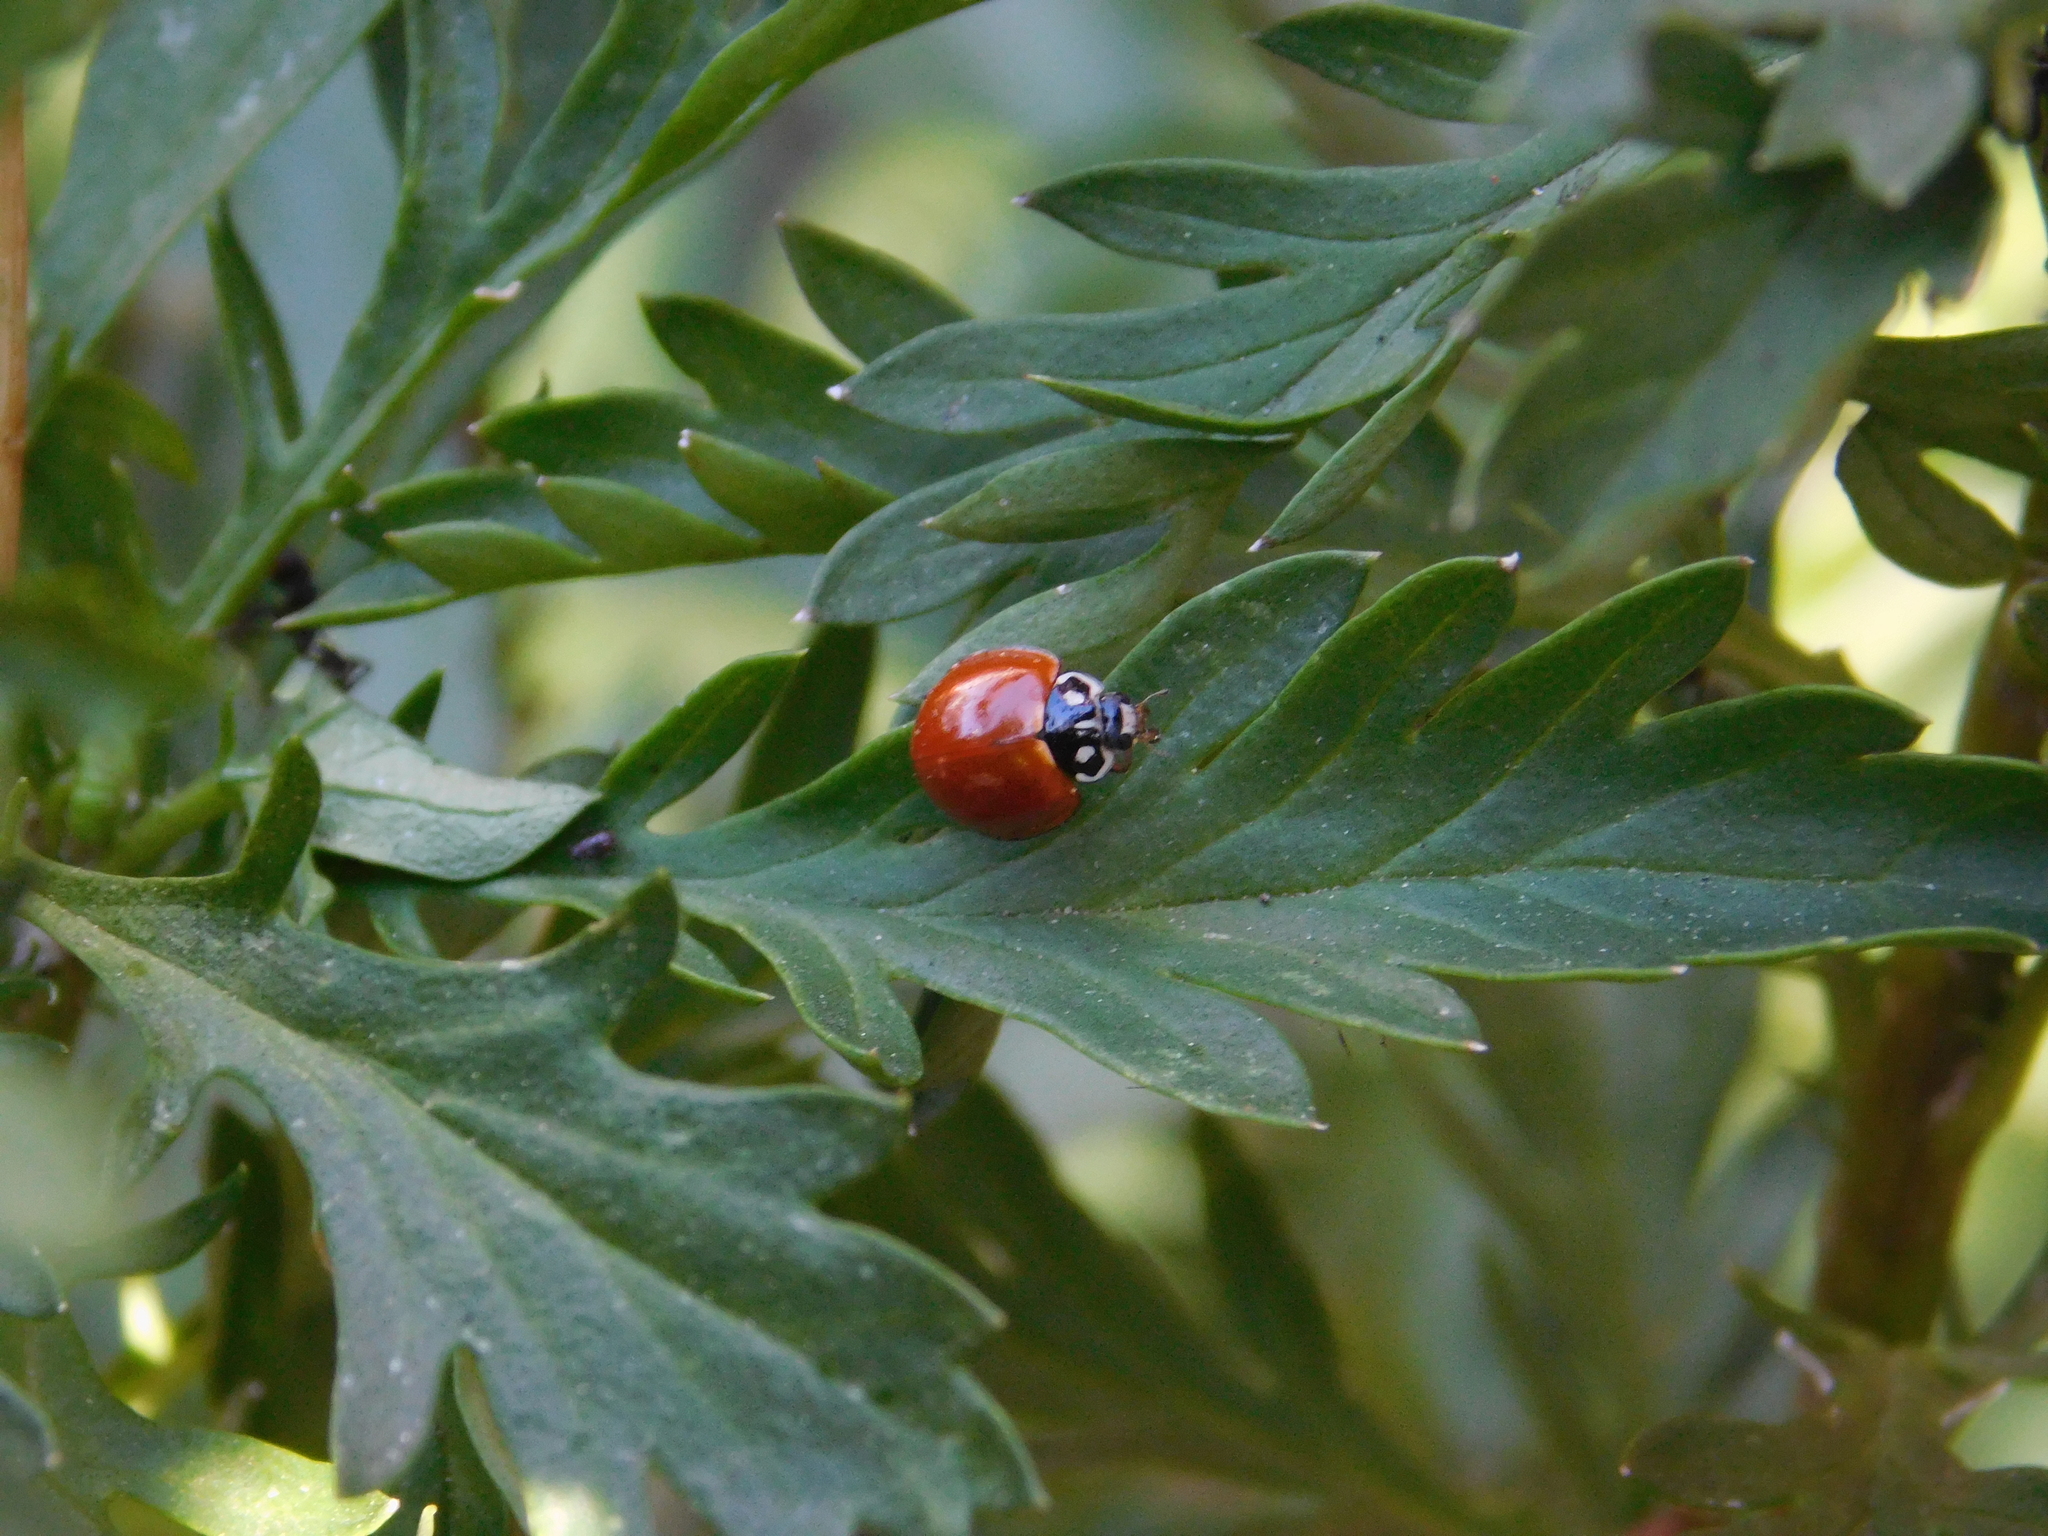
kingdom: Animalia
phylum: Arthropoda
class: Insecta
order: Coleoptera
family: Coccinellidae
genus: Cycloneda
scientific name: Cycloneda sanguinea
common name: Ladybird beetle
